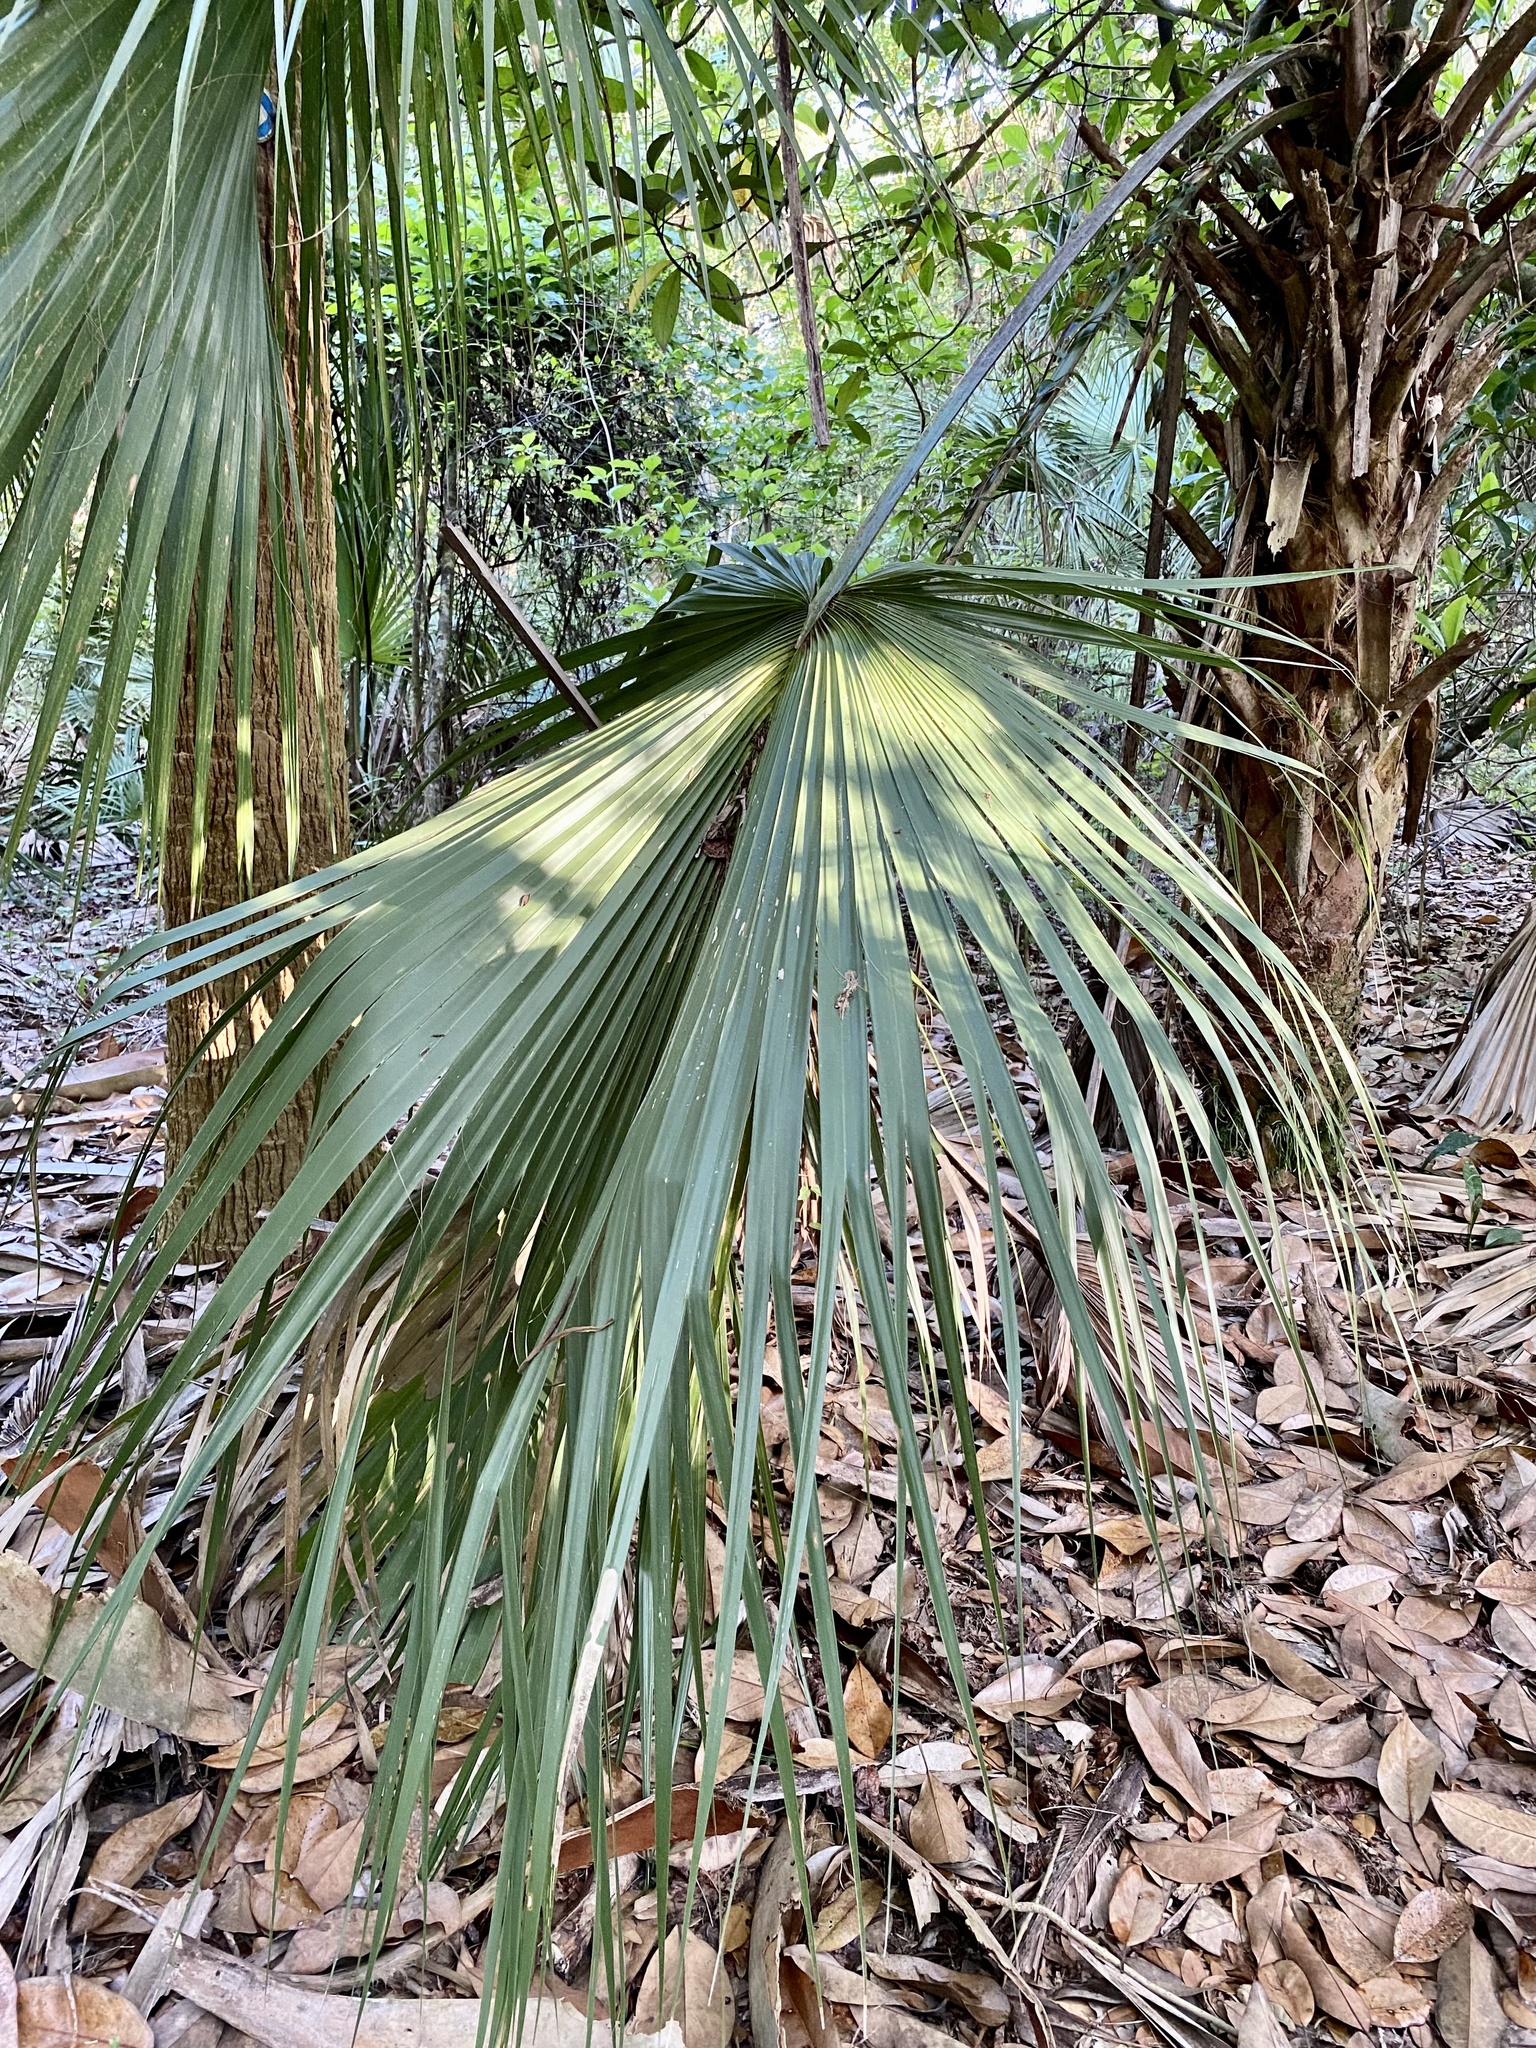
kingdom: Plantae
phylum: Tracheophyta
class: Liliopsida
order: Arecales
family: Arecaceae
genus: Sabal
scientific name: Sabal palmetto
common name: Blue palmetto
